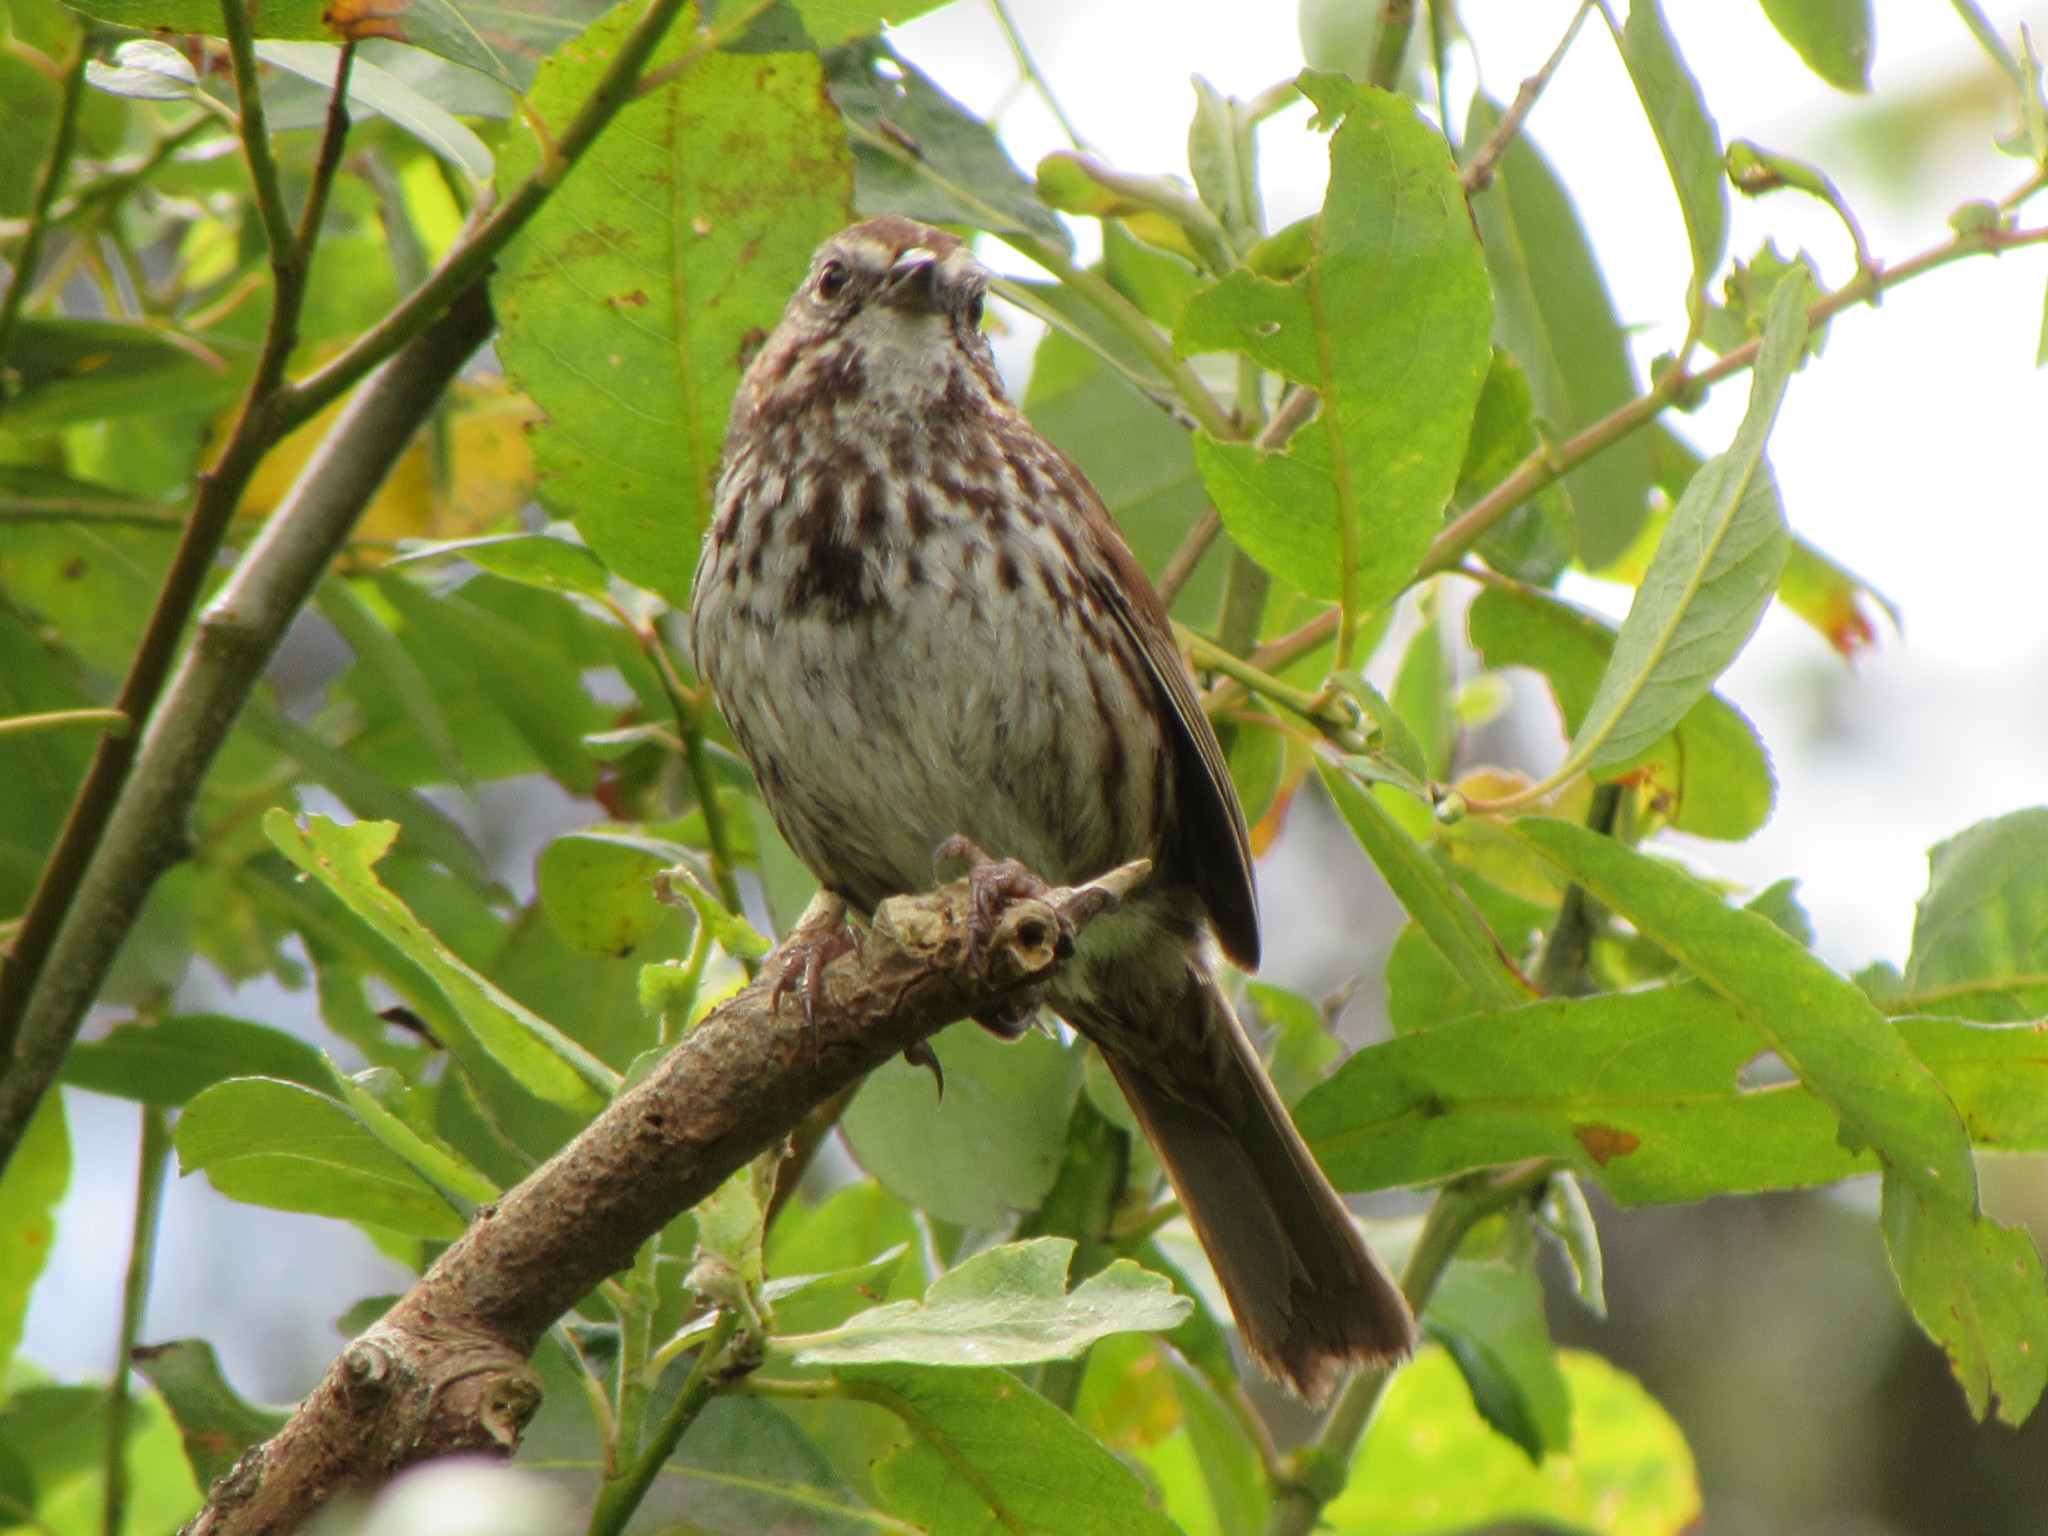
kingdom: Animalia
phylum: Chordata
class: Aves
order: Passeriformes
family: Passerellidae
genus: Melospiza
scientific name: Melospiza melodia
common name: Song sparrow
